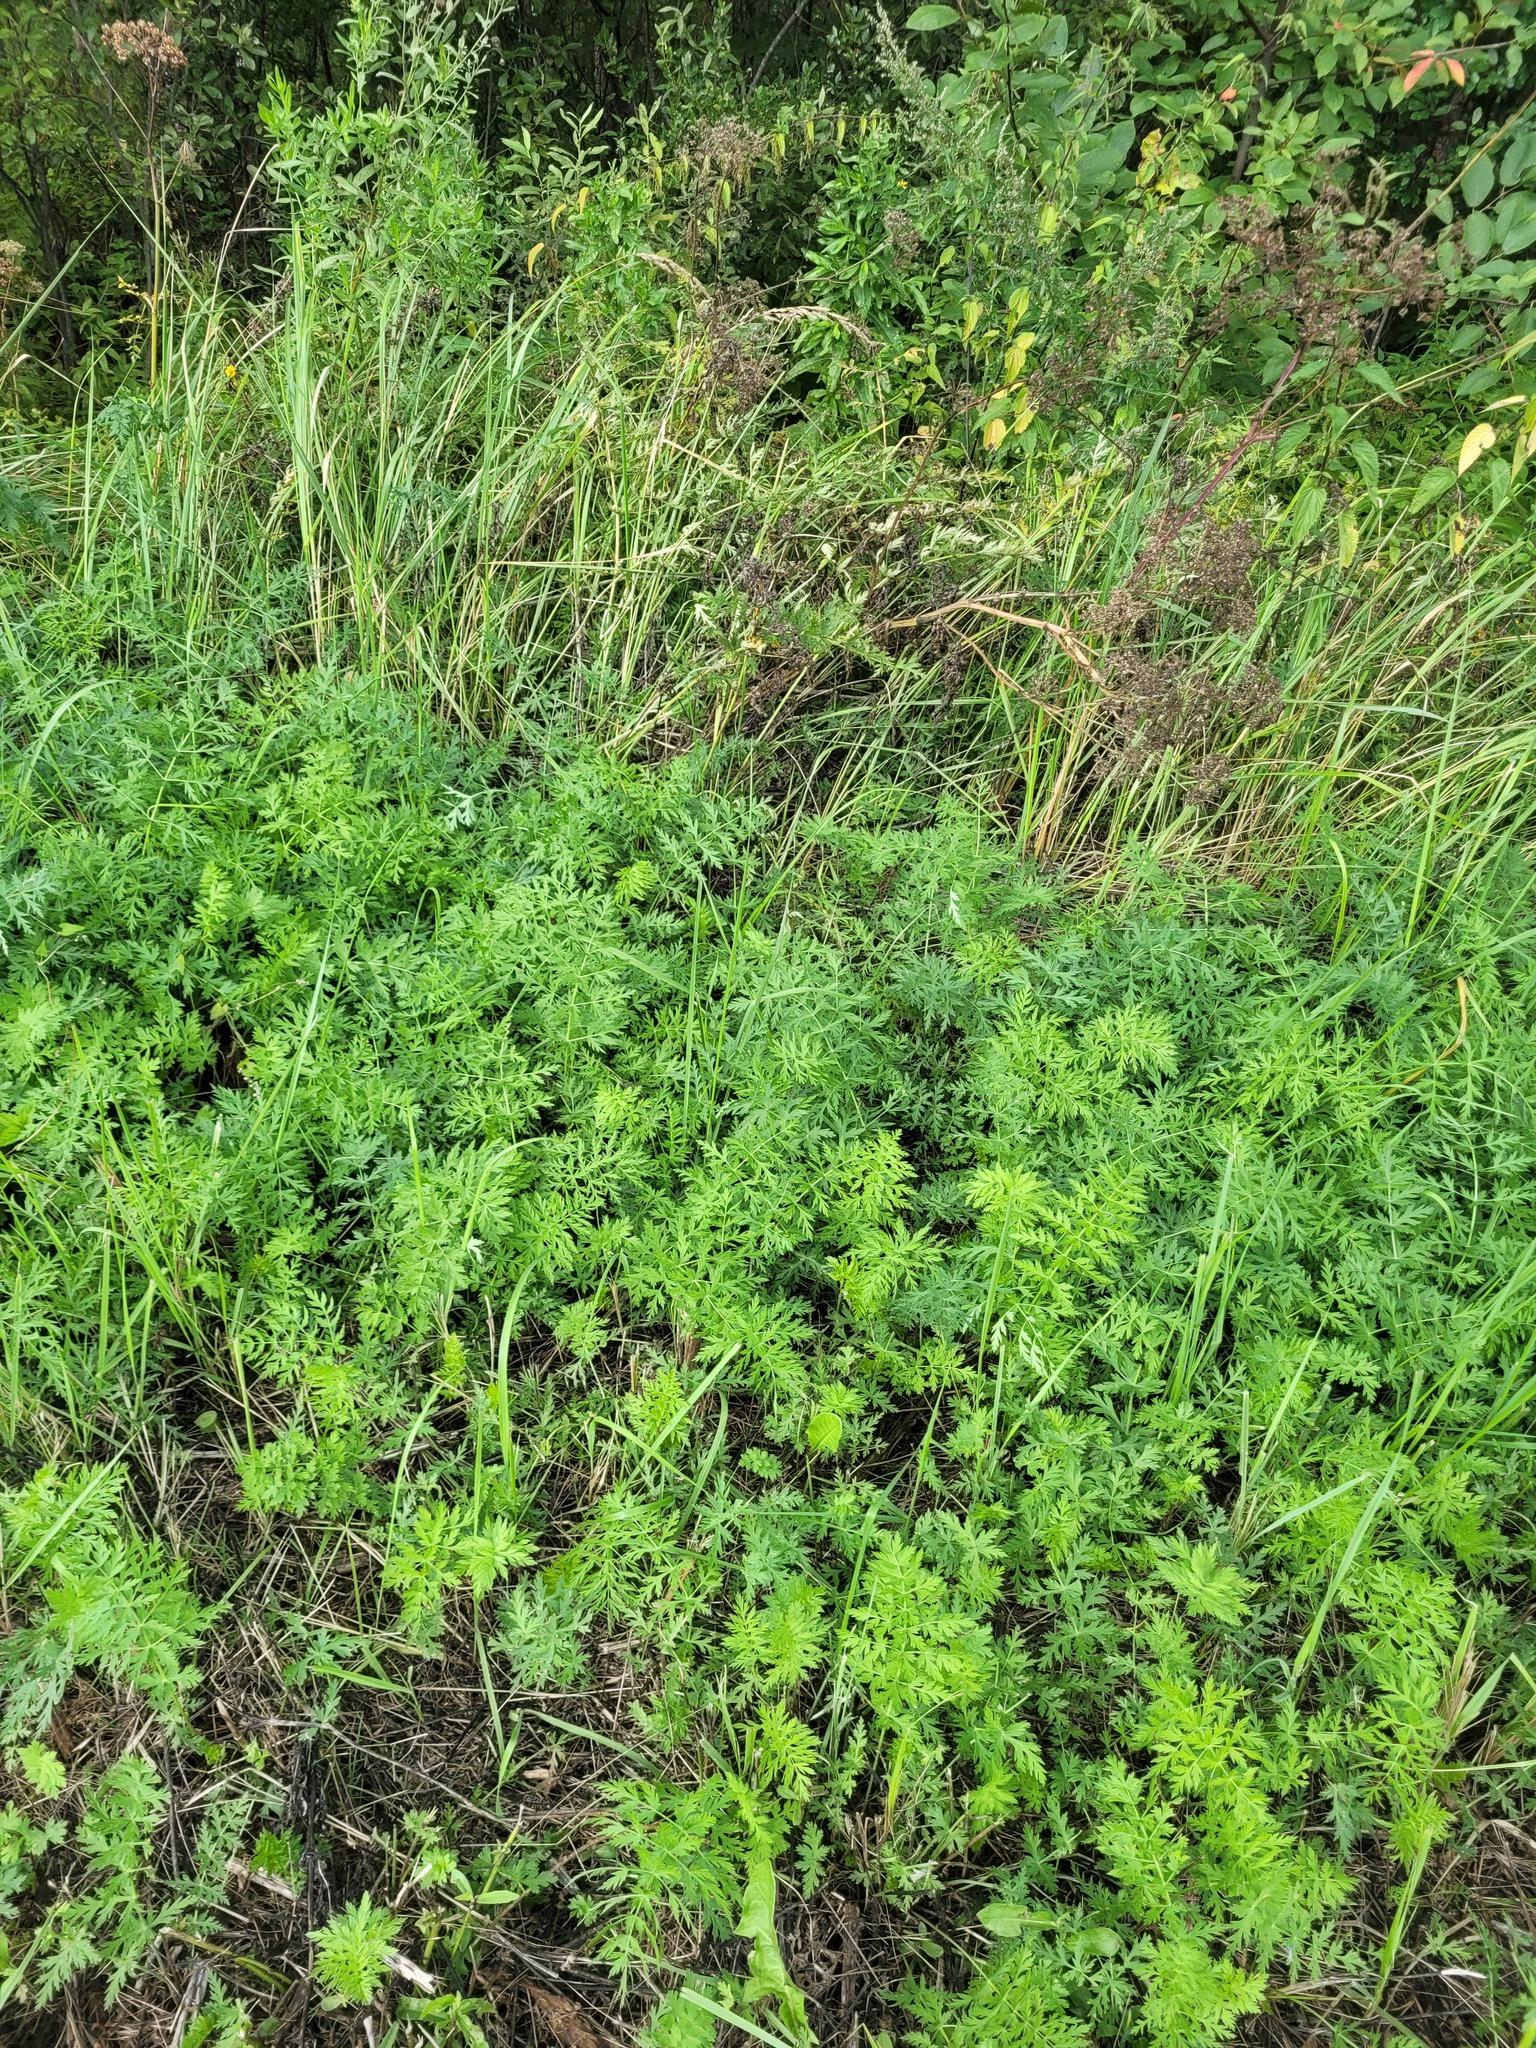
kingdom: Plantae
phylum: Tracheophyta
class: Magnoliopsida
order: Apiales
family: Apiaceae
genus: Seseli
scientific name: Seseli libanotis
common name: Mooncarrot
